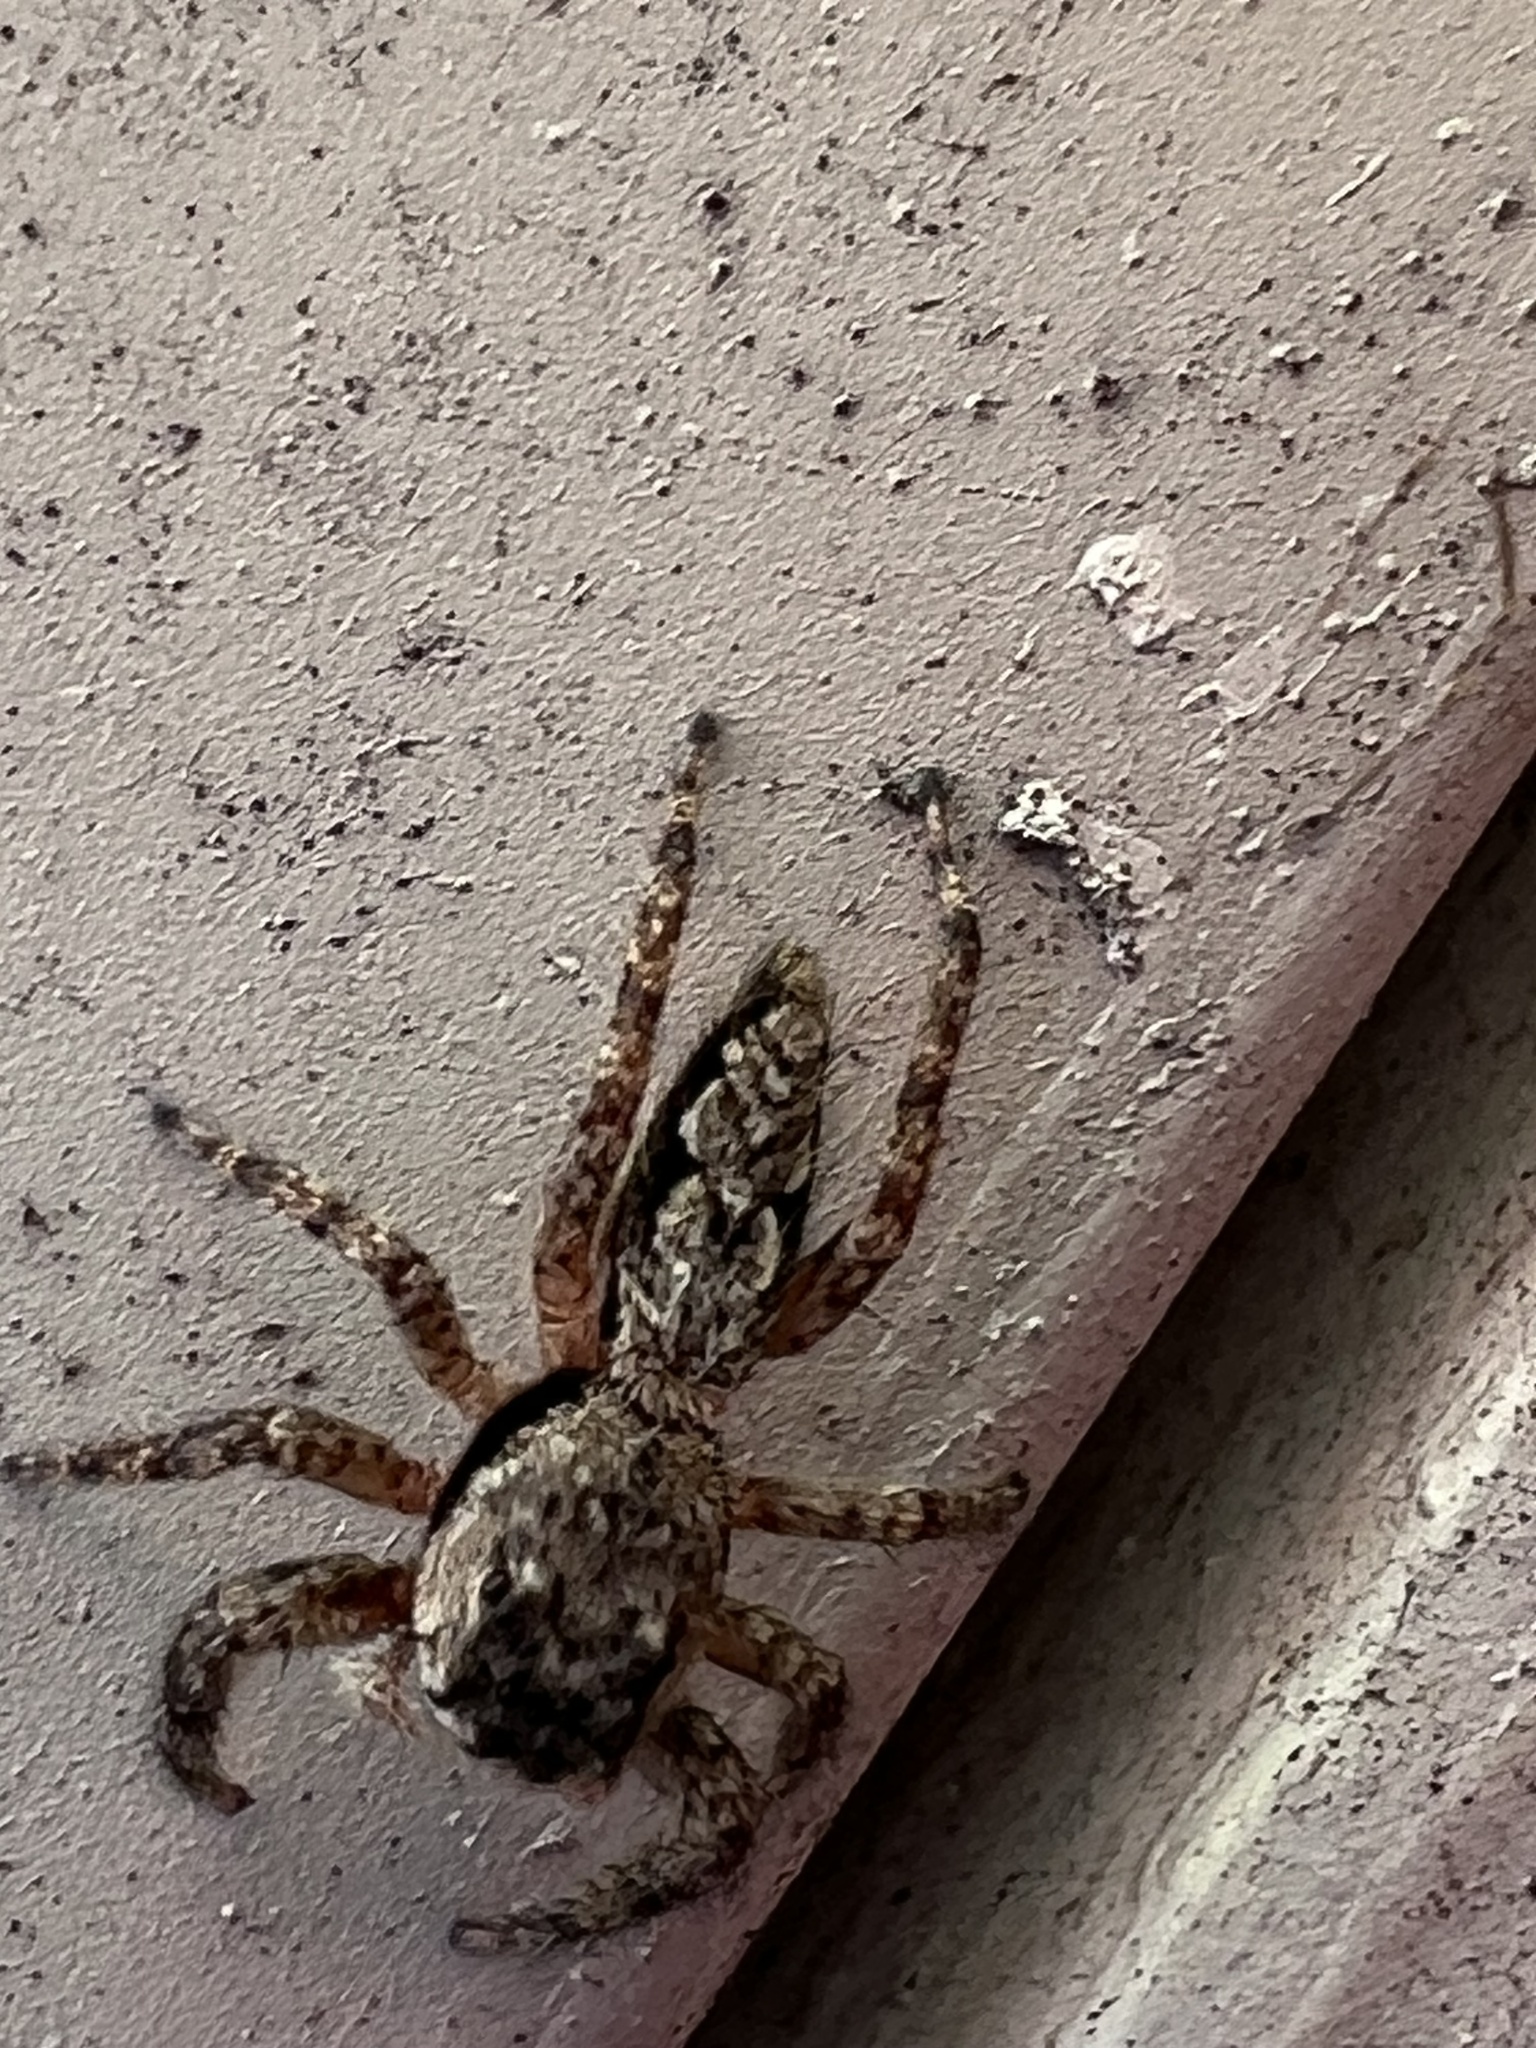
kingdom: Animalia
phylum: Arthropoda
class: Arachnida
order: Araneae
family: Salticidae
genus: Platycryptus
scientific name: Platycryptus undatus
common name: Tan jumping spider
